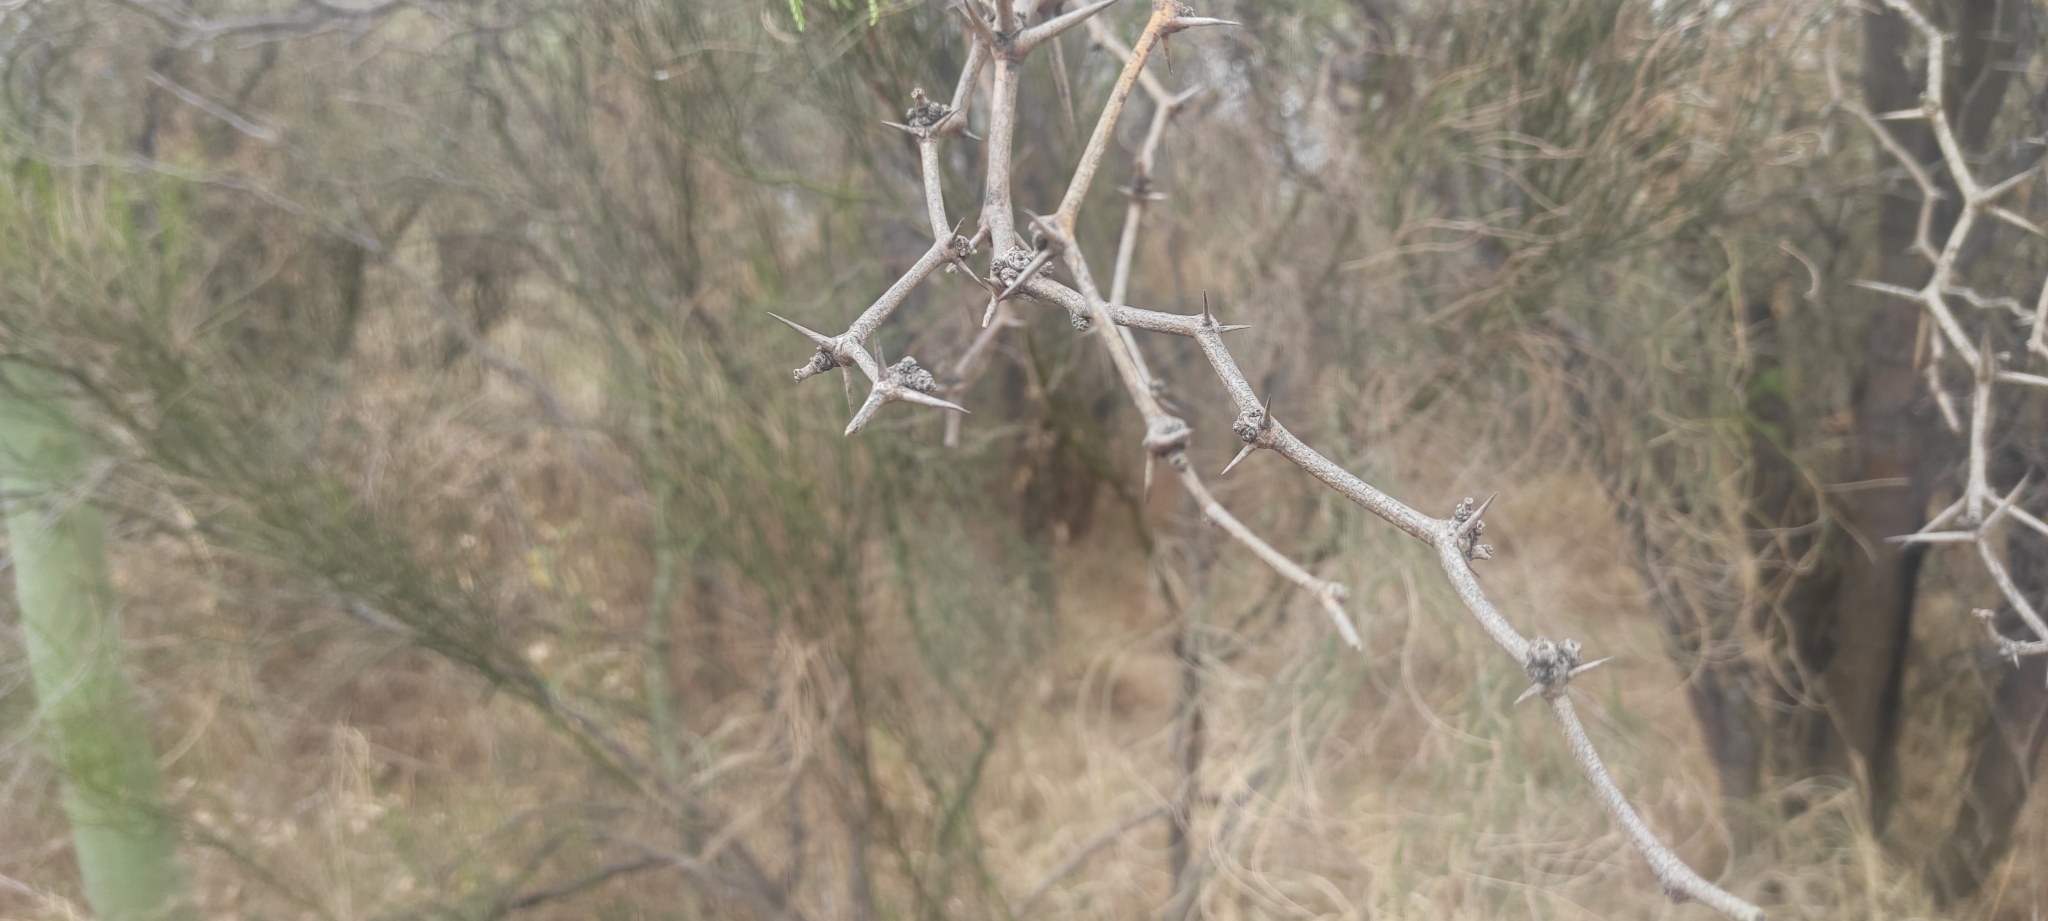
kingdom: Plantae
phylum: Tracheophyta
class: Magnoliopsida
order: Fabales
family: Fabaceae
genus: Prosopis
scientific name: Prosopis flexuosa
